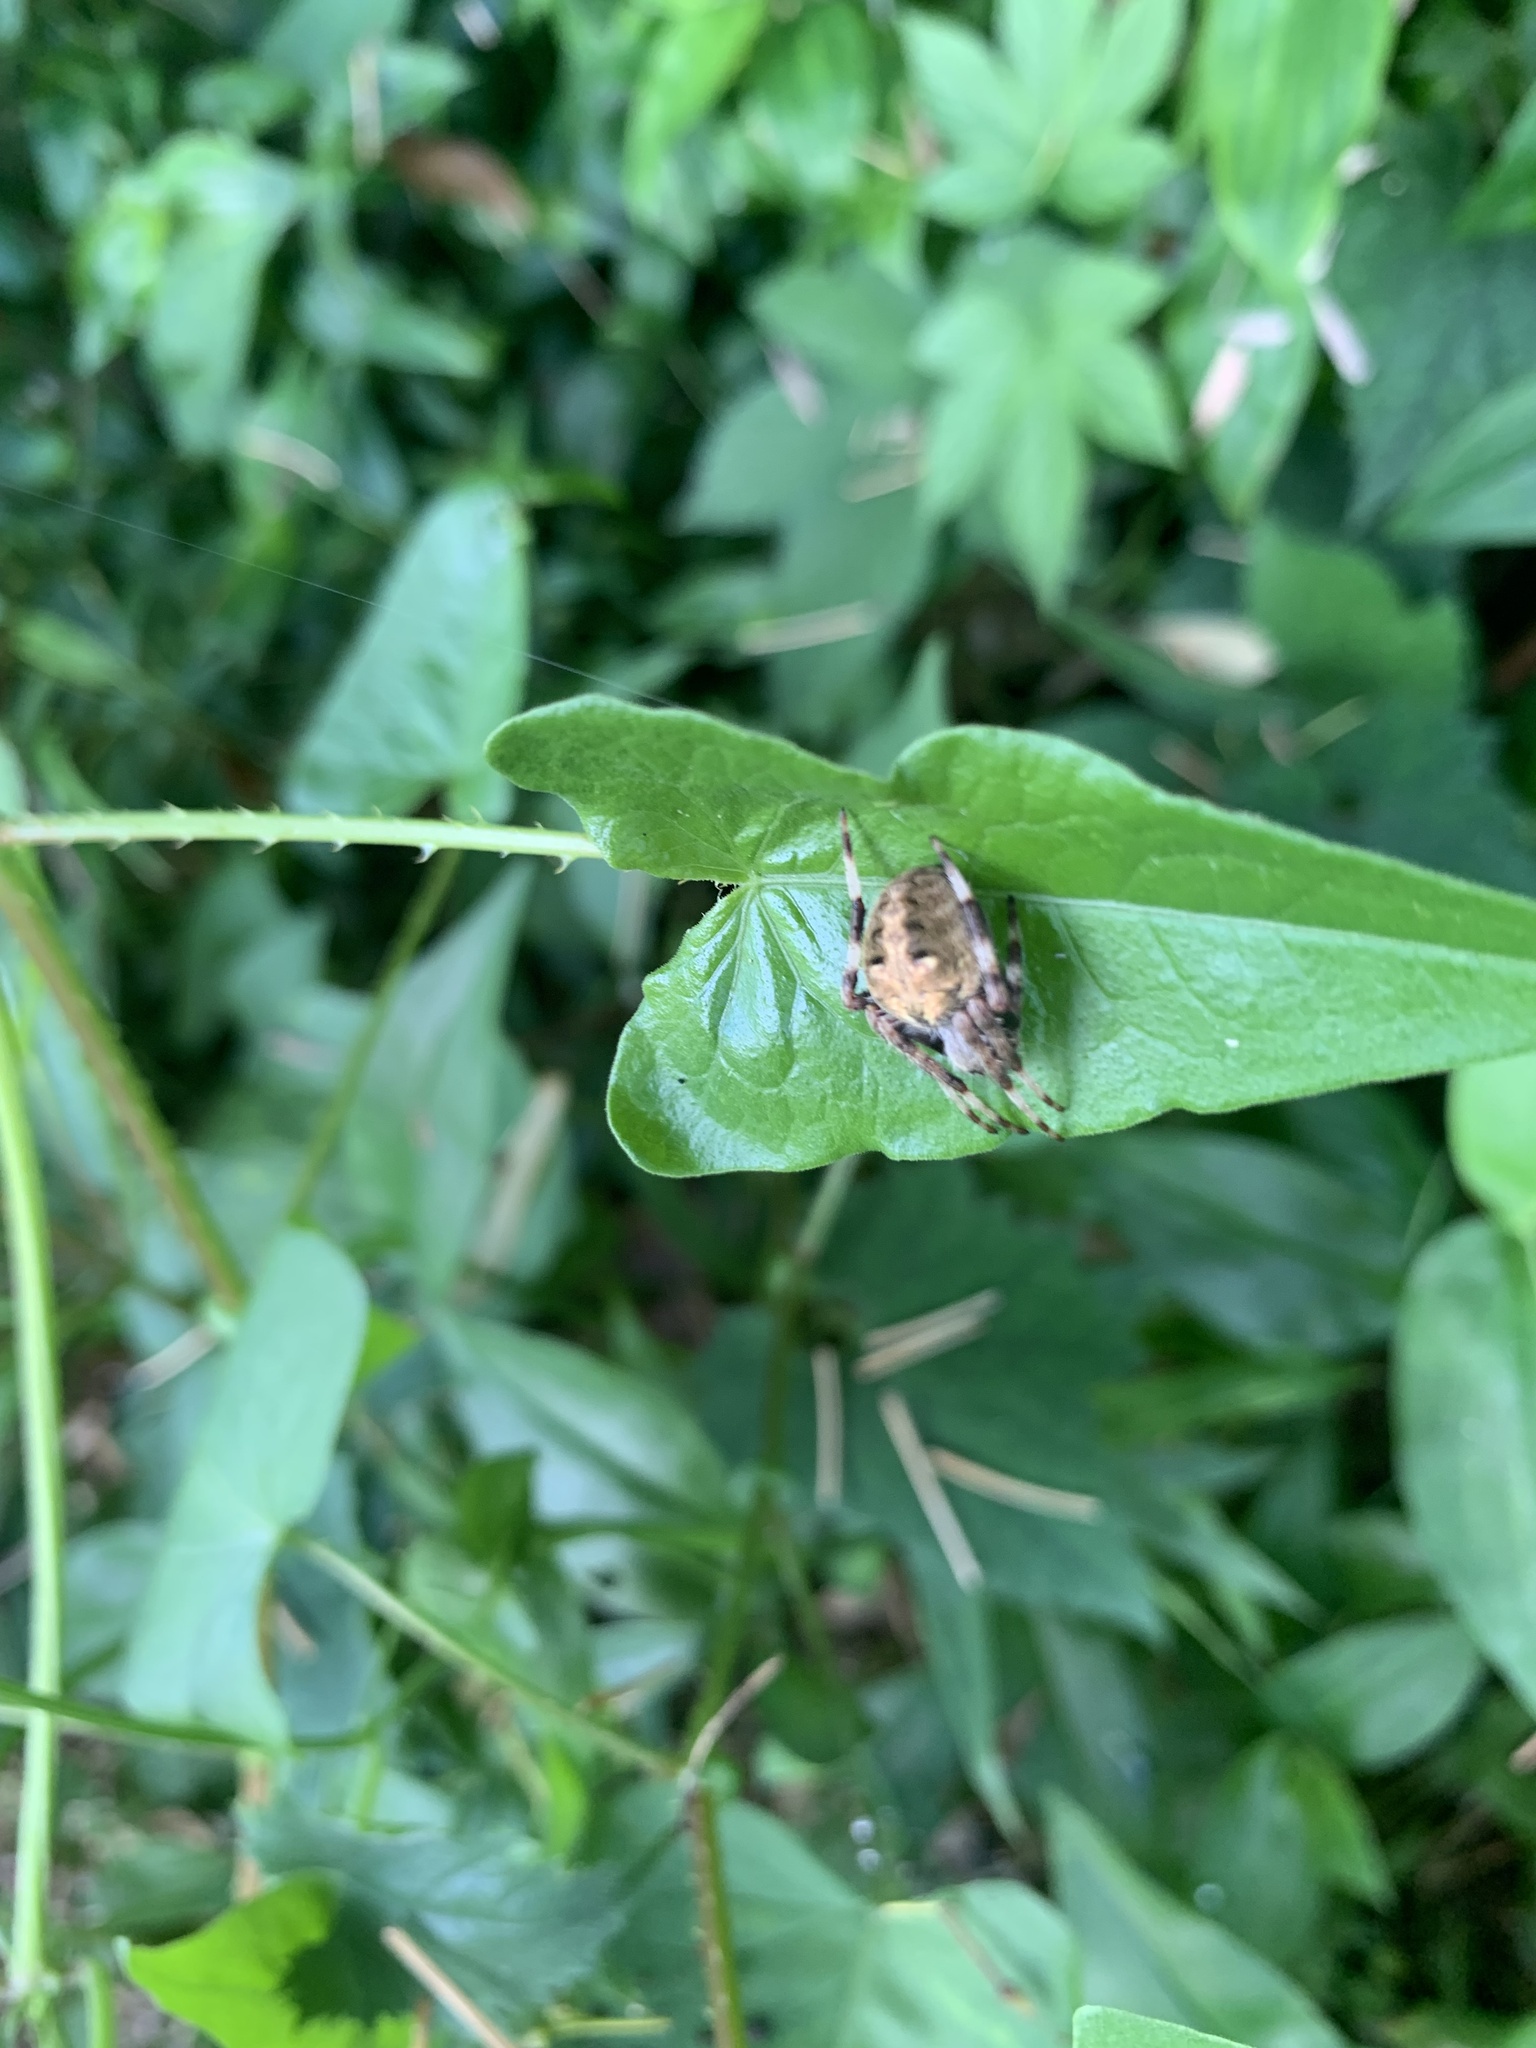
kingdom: Animalia
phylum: Arthropoda
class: Arachnida
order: Araneae
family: Araneidae
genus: Neoscona
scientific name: Neoscona scylla
